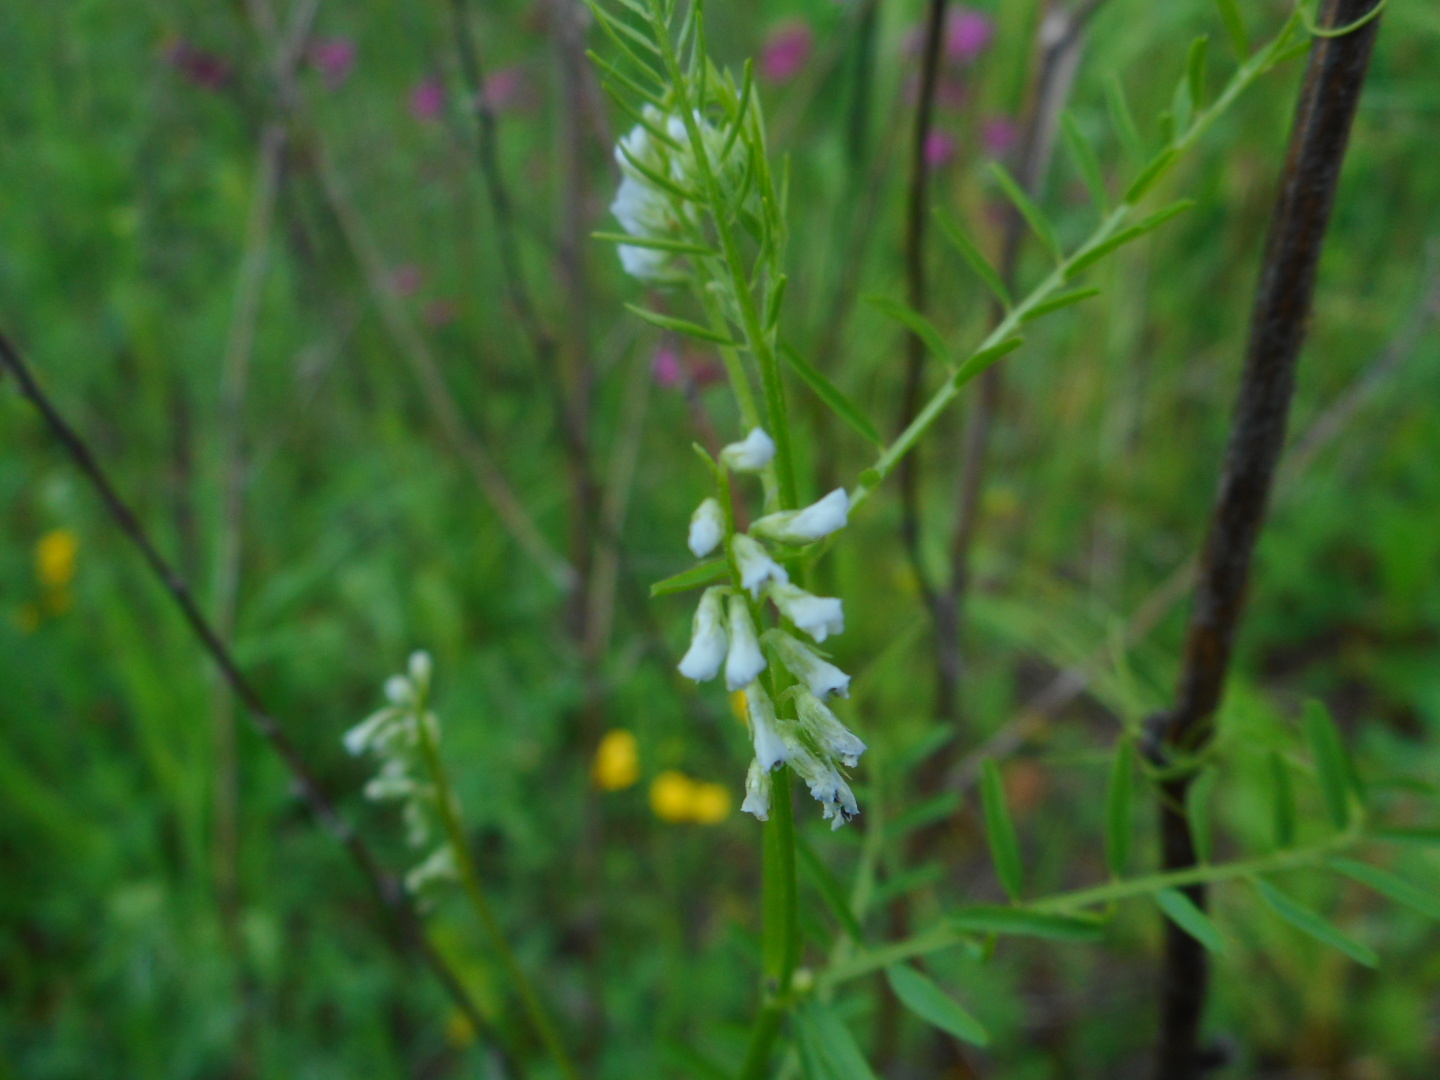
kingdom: Plantae
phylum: Tracheophyta
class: Magnoliopsida
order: Fabales
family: Fabaceae
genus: Vicia
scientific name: Vicia hirsuta
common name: Tiny vetch
